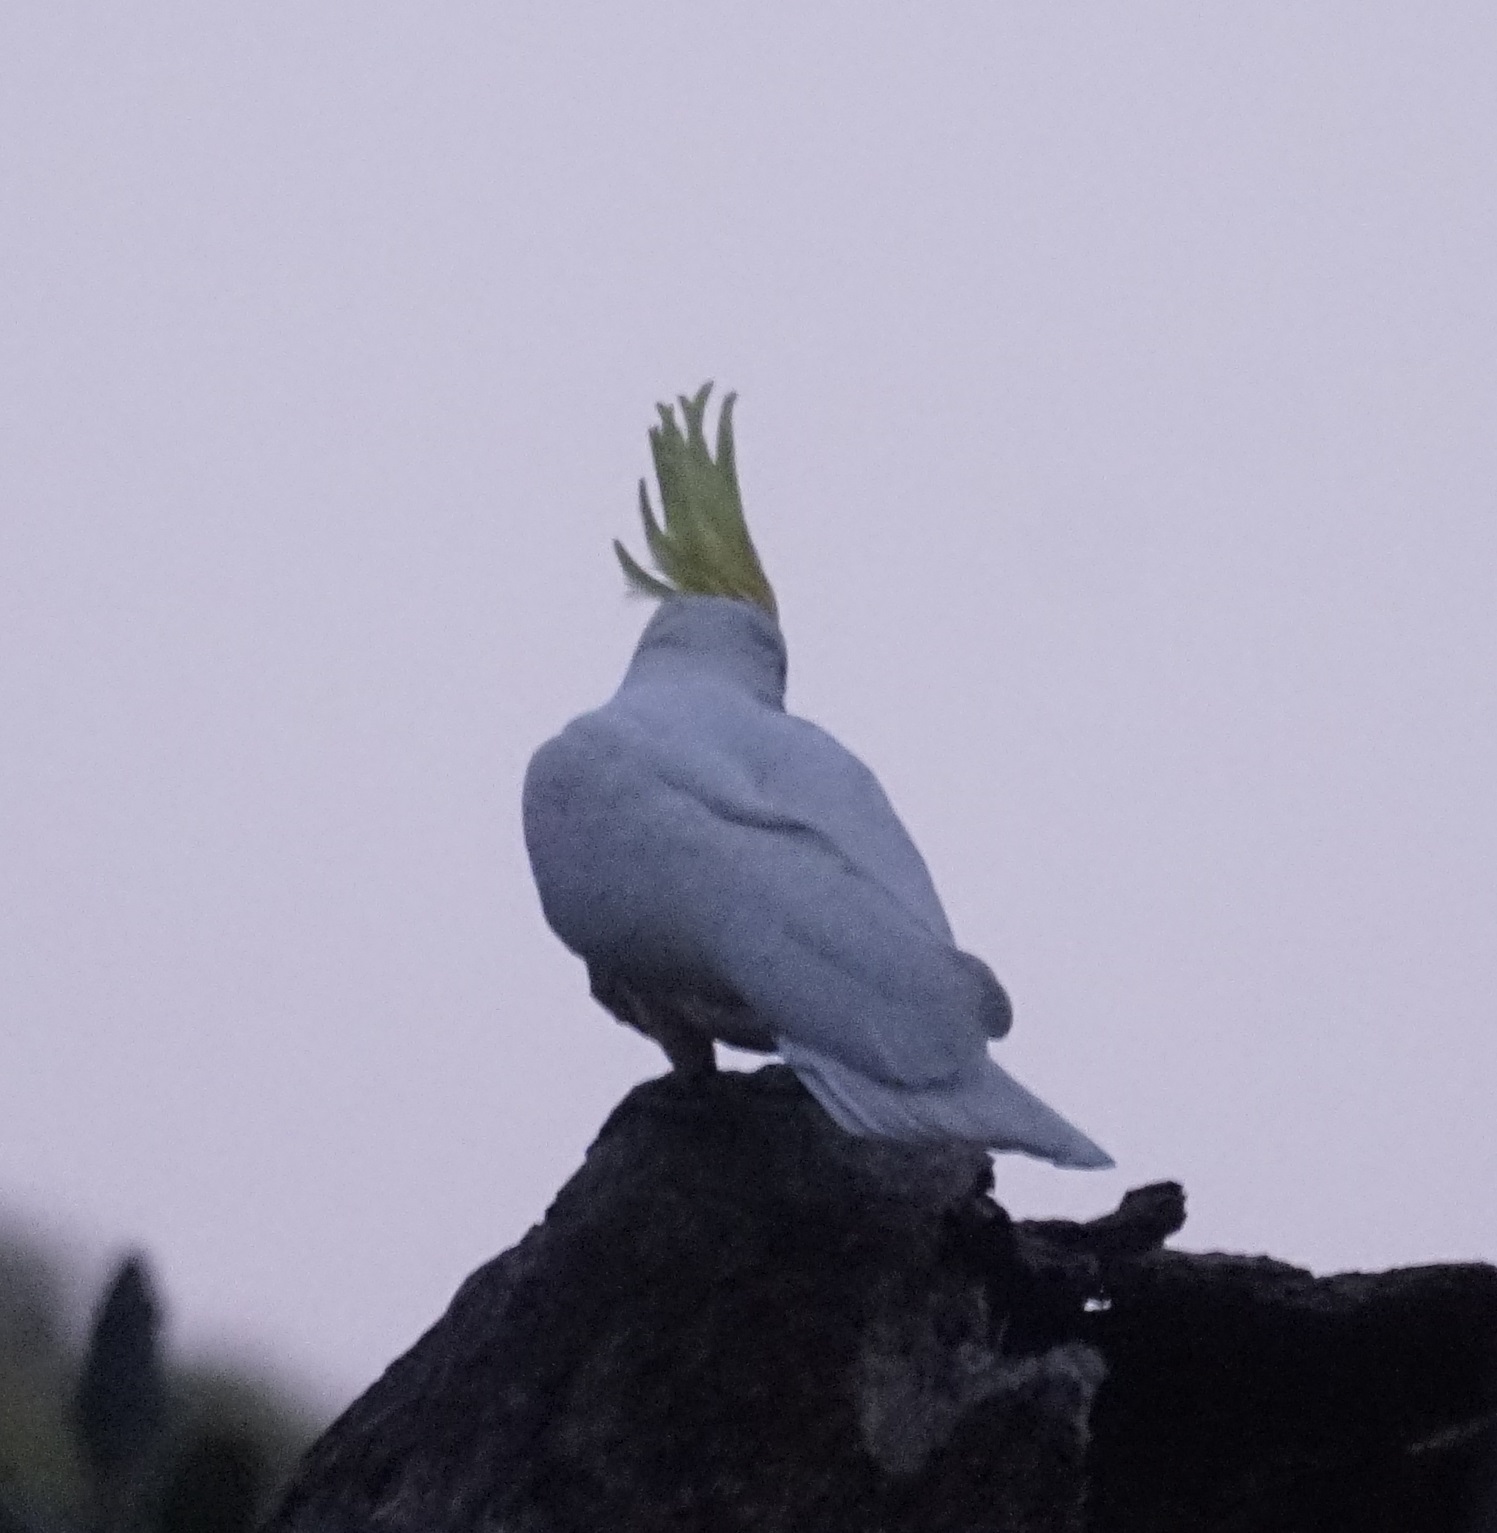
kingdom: Animalia
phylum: Chordata
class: Aves
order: Psittaciformes
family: Psittacidae
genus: Cacatua
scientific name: Cacatua galerita
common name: Sulphur-crested cockatoo
